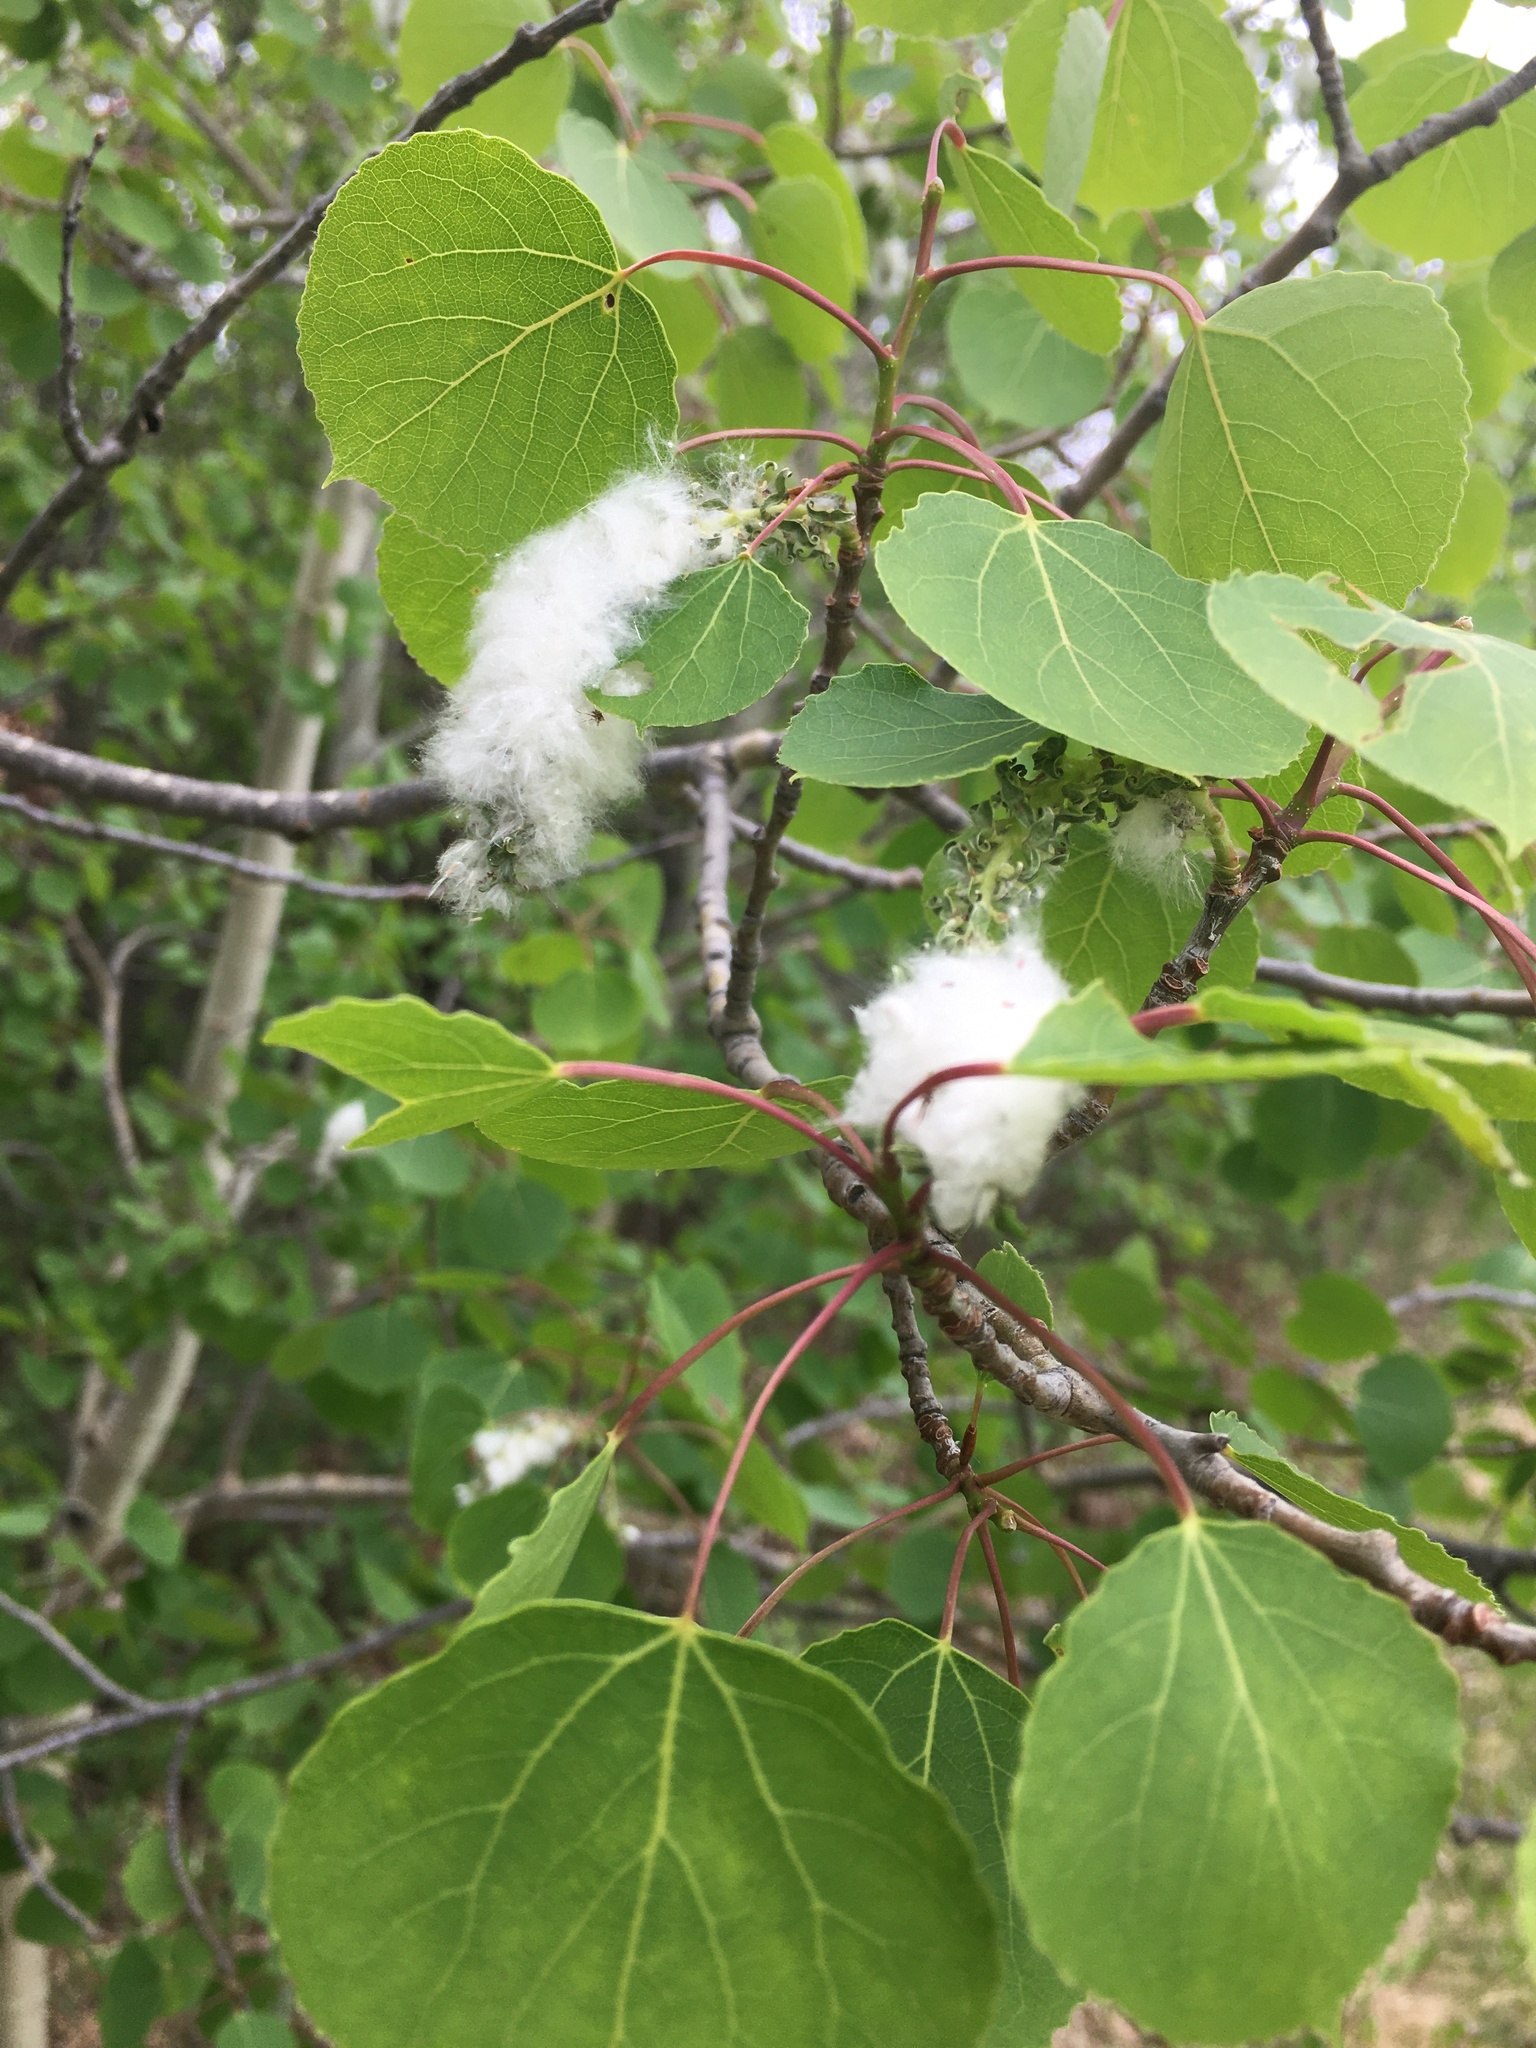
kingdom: Plantae
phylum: Tracheophyta
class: Magnoliopsida
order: Malpighiales
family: Salicaceae
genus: Populus
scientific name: Populus tremuloides
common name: Quaking aspen
